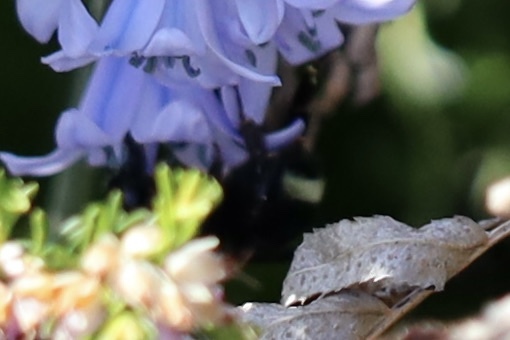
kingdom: Animalia
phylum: Arthropoda
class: Insecta
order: Hymenoptera
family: Apidae
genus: Bombus
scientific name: Bombus californicus
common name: California bumble bee
